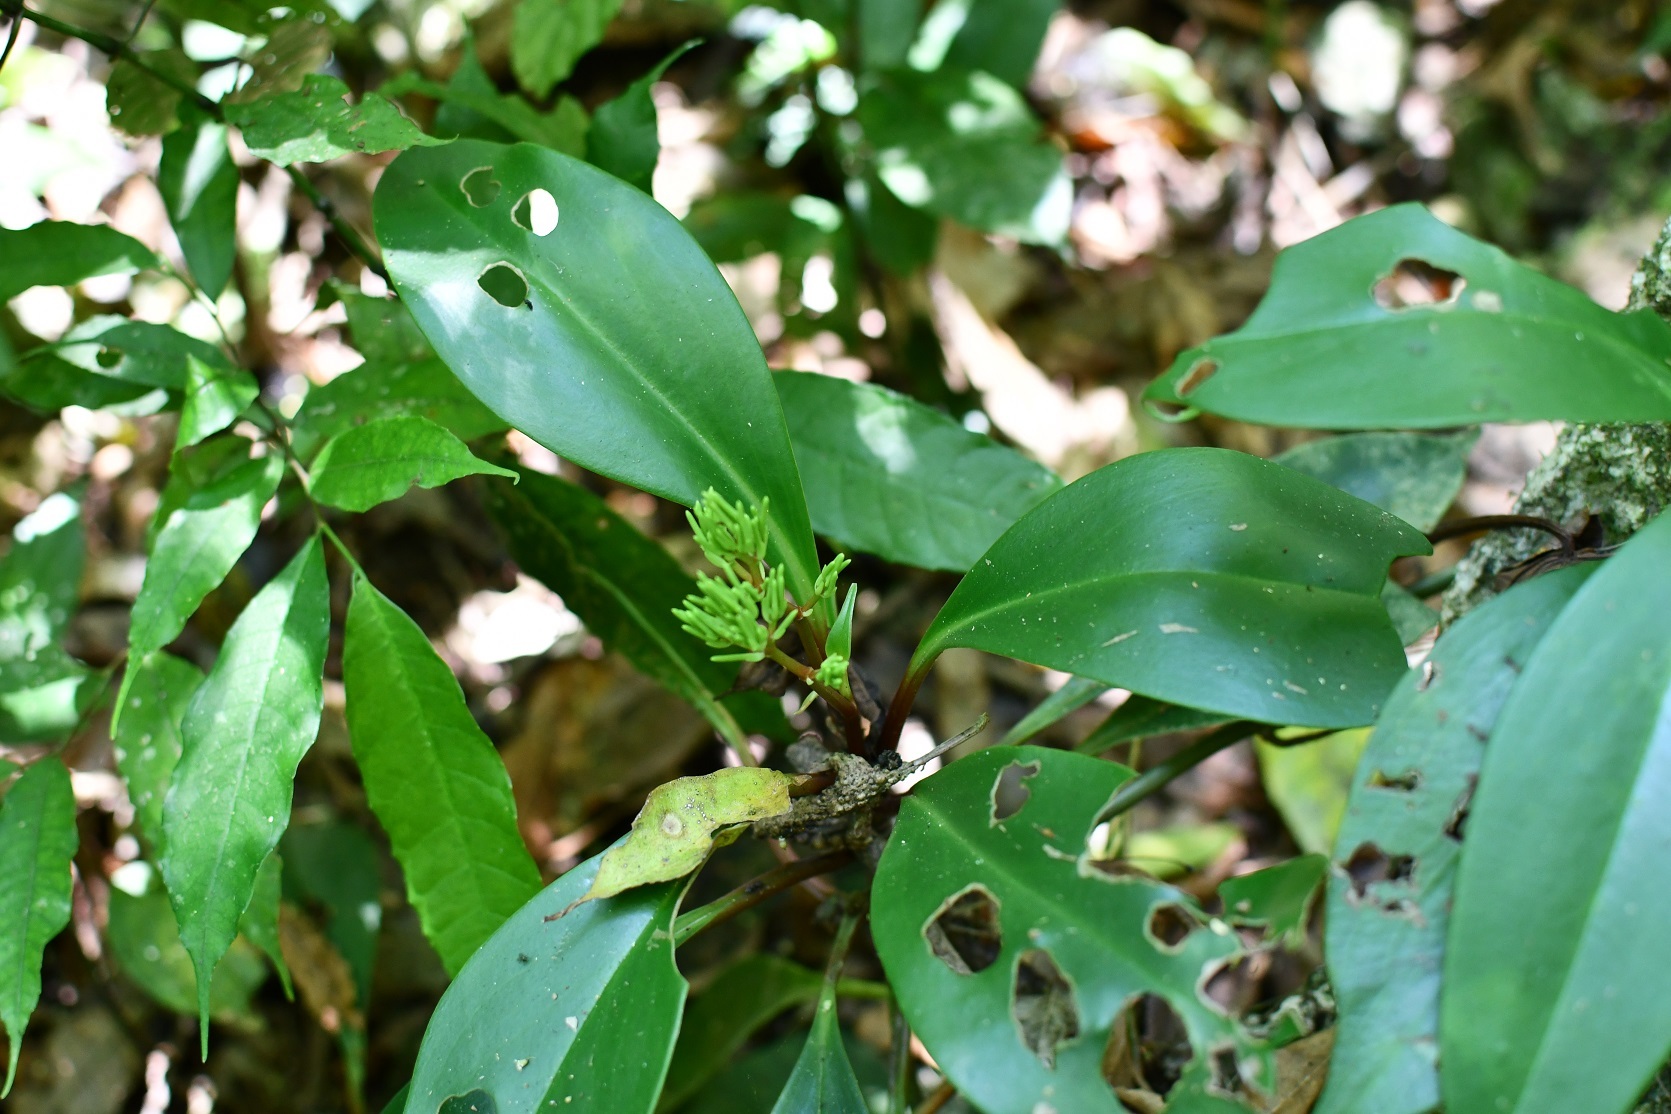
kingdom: Plantae
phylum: Tracheophyta
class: Magnoliopsida
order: Piperales
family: Piperaceae
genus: Peperomia
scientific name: Peperomia parastriata
